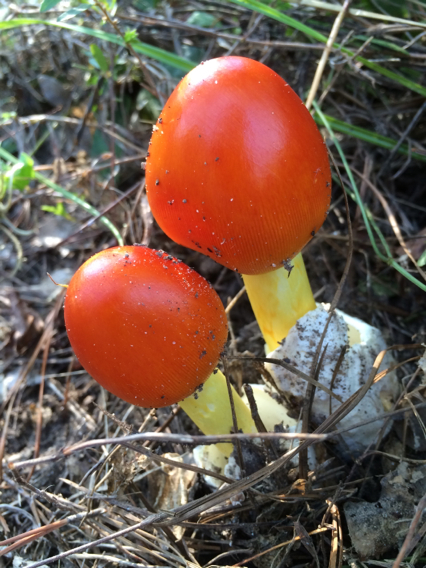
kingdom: Fungi
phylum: Basidiomycota
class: Agaricomycetes
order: Agaricales
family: Amanitaceae
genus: Amanita
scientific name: Amanita jacksonii
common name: Jackson's slender caesar
